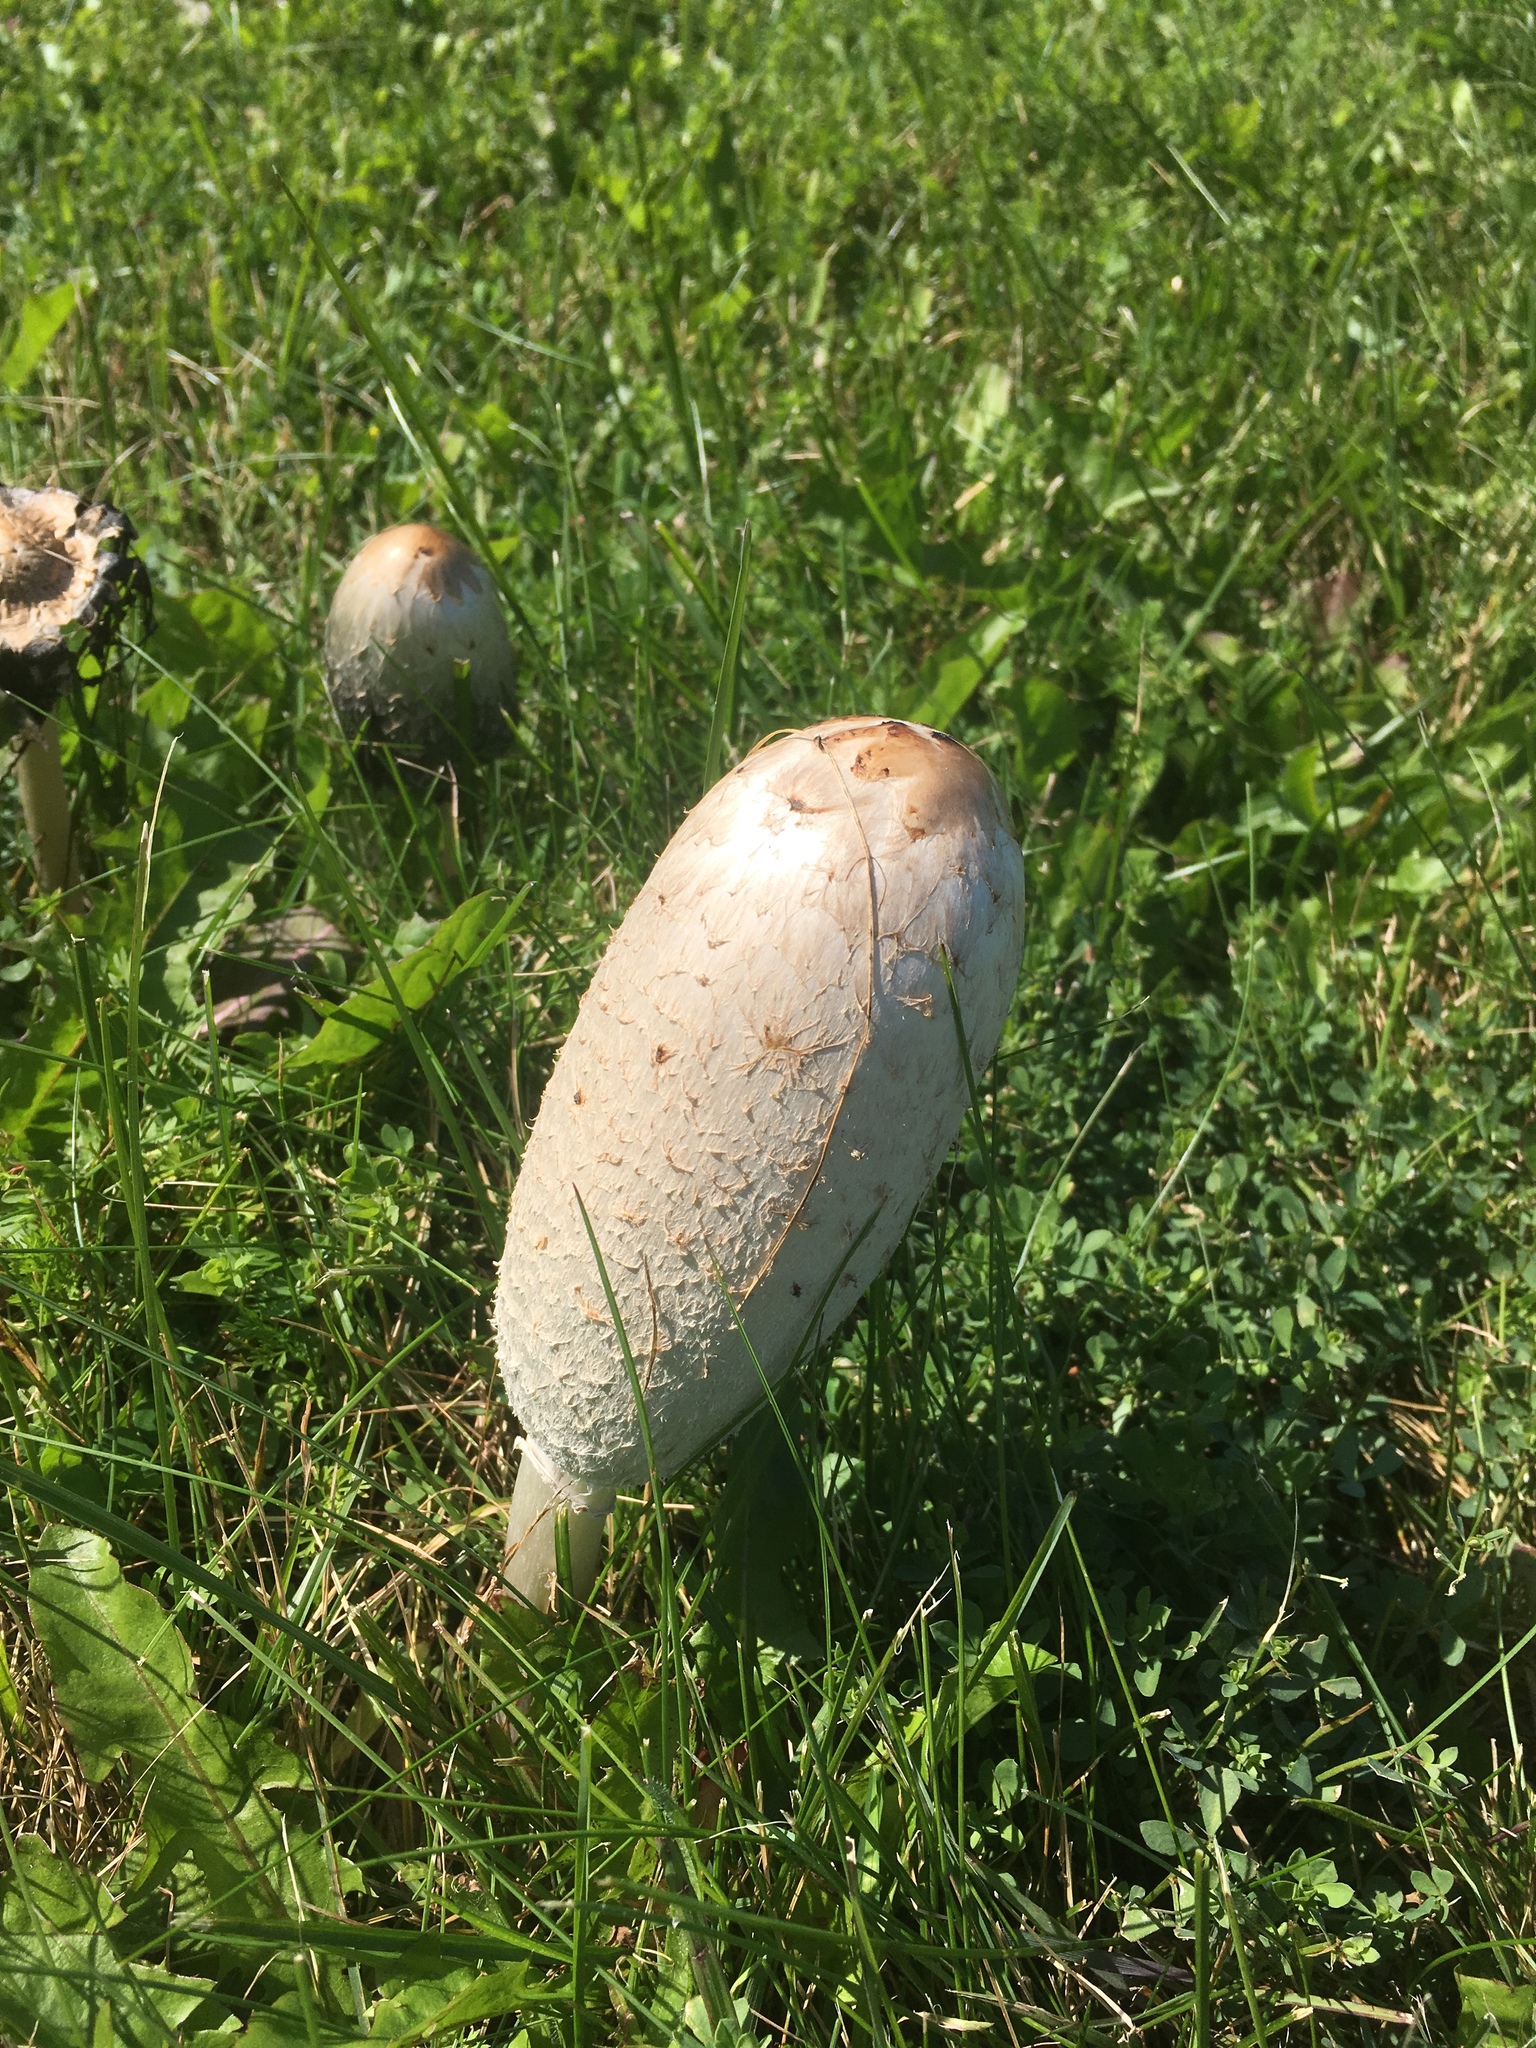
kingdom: Fungi
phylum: Basidiomycota
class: Agaricomycetes
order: Agaricales
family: Agaricaceae
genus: Coprinus
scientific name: Coprinus comatus
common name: Lawyer's wig
